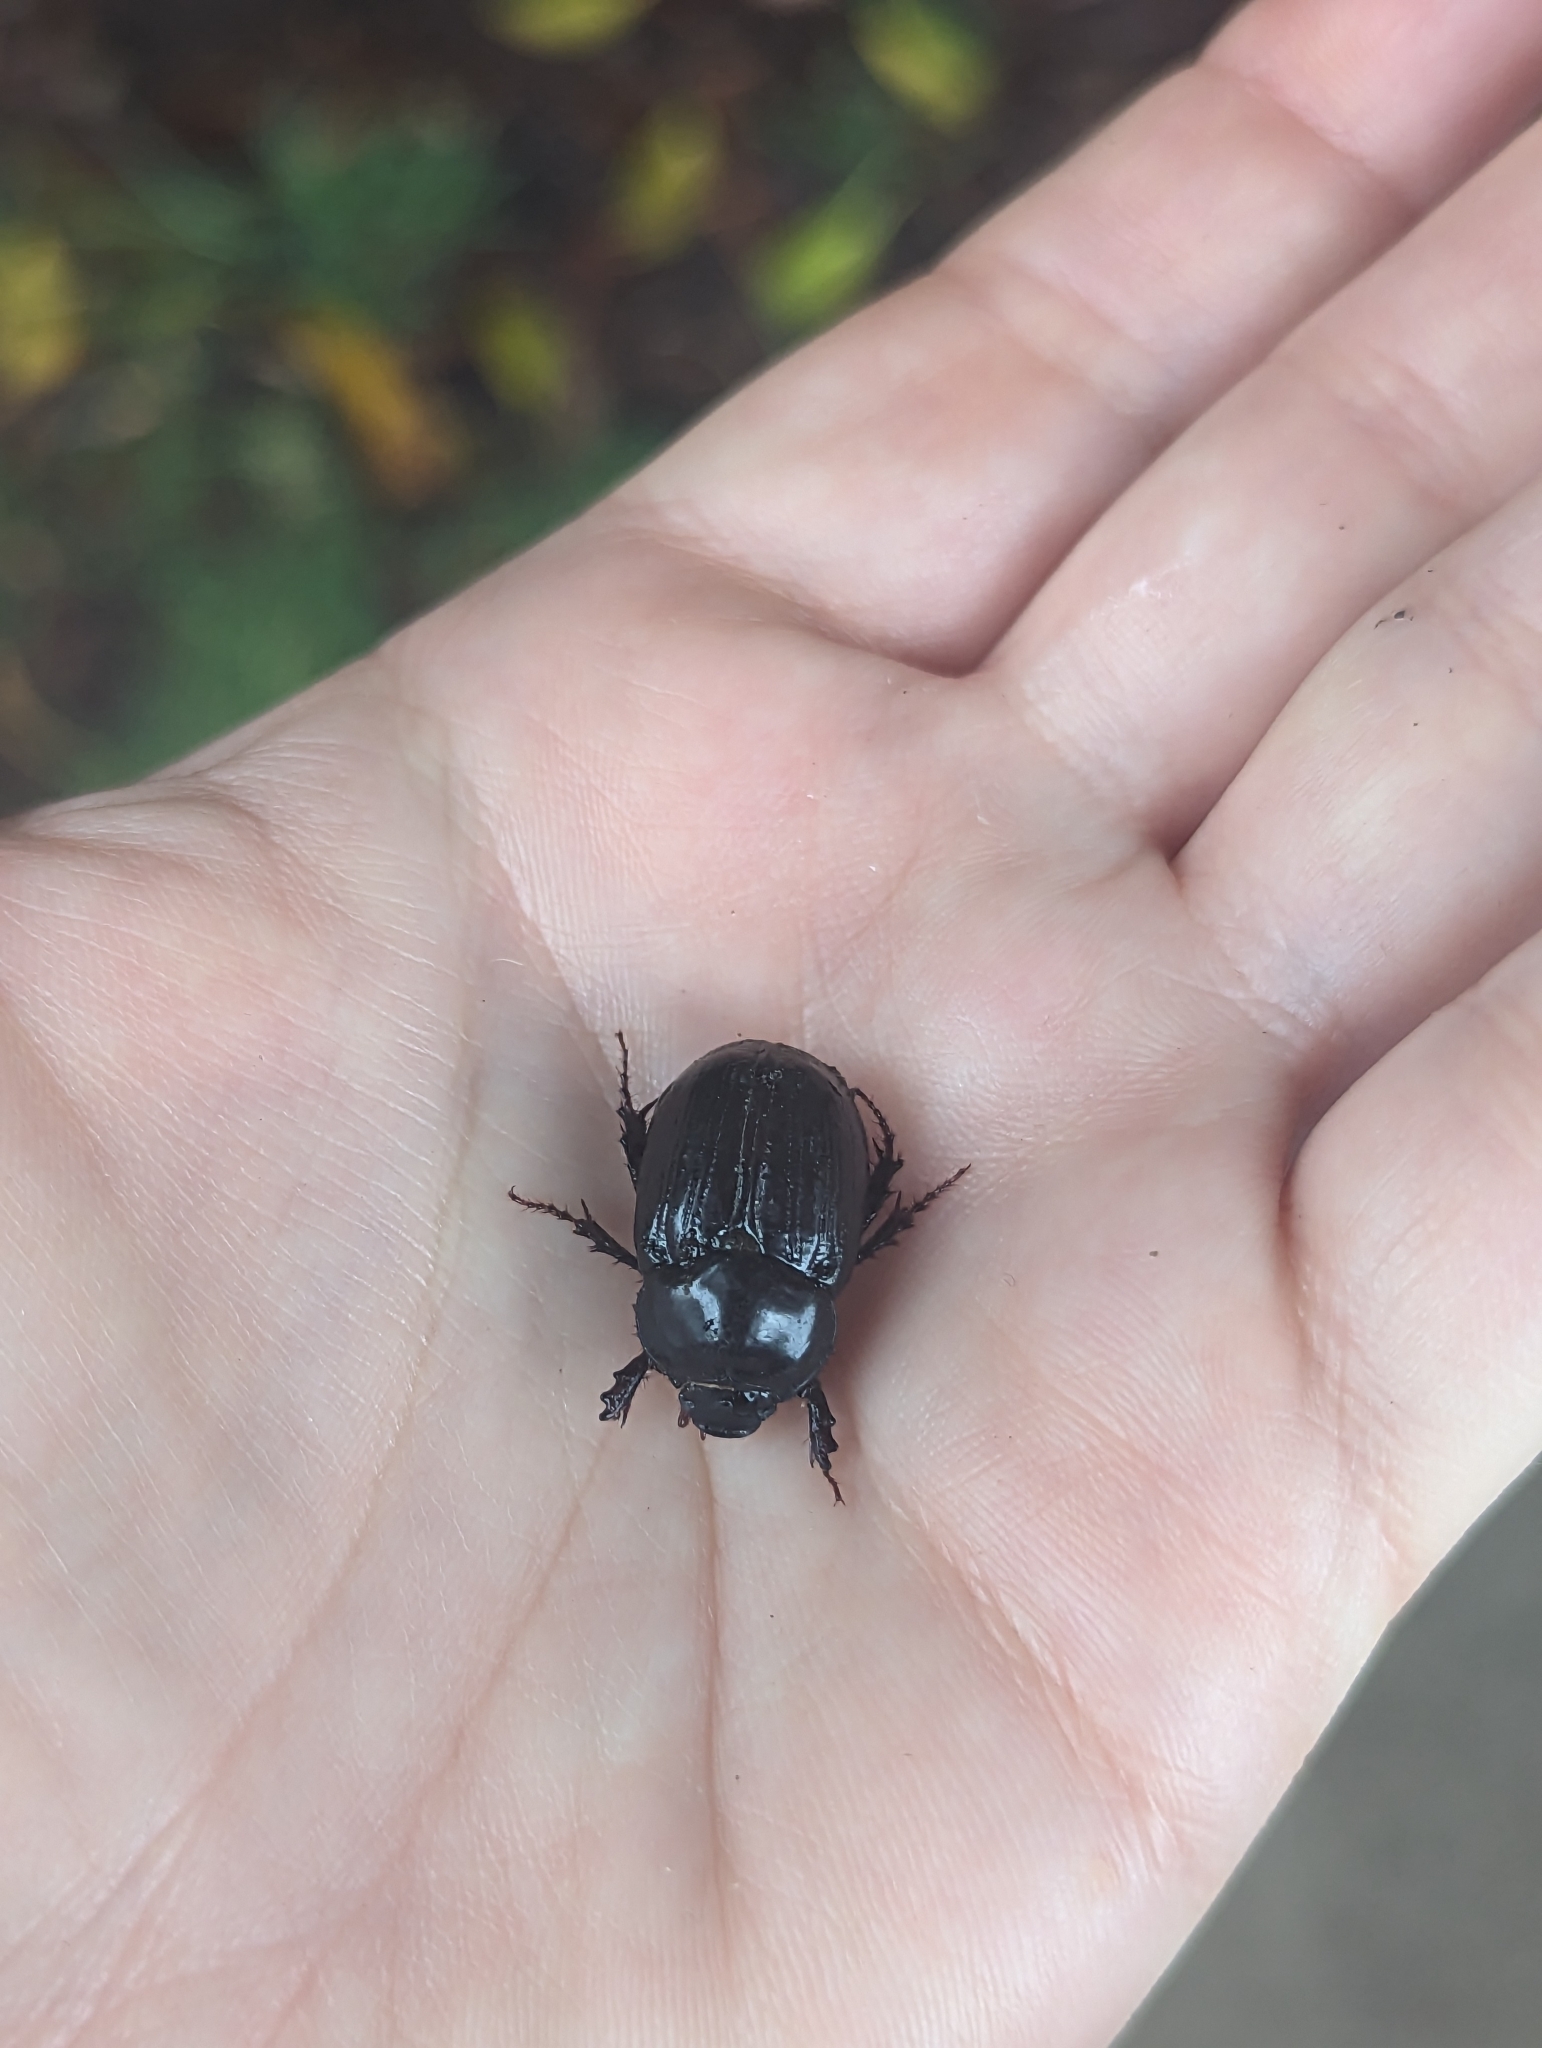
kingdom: Animalia
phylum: Arthropoda
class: Insecta
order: Coleoptera
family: Scarabaeidae
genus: Heteronychus
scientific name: Heteronychus arator
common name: African black beetle
